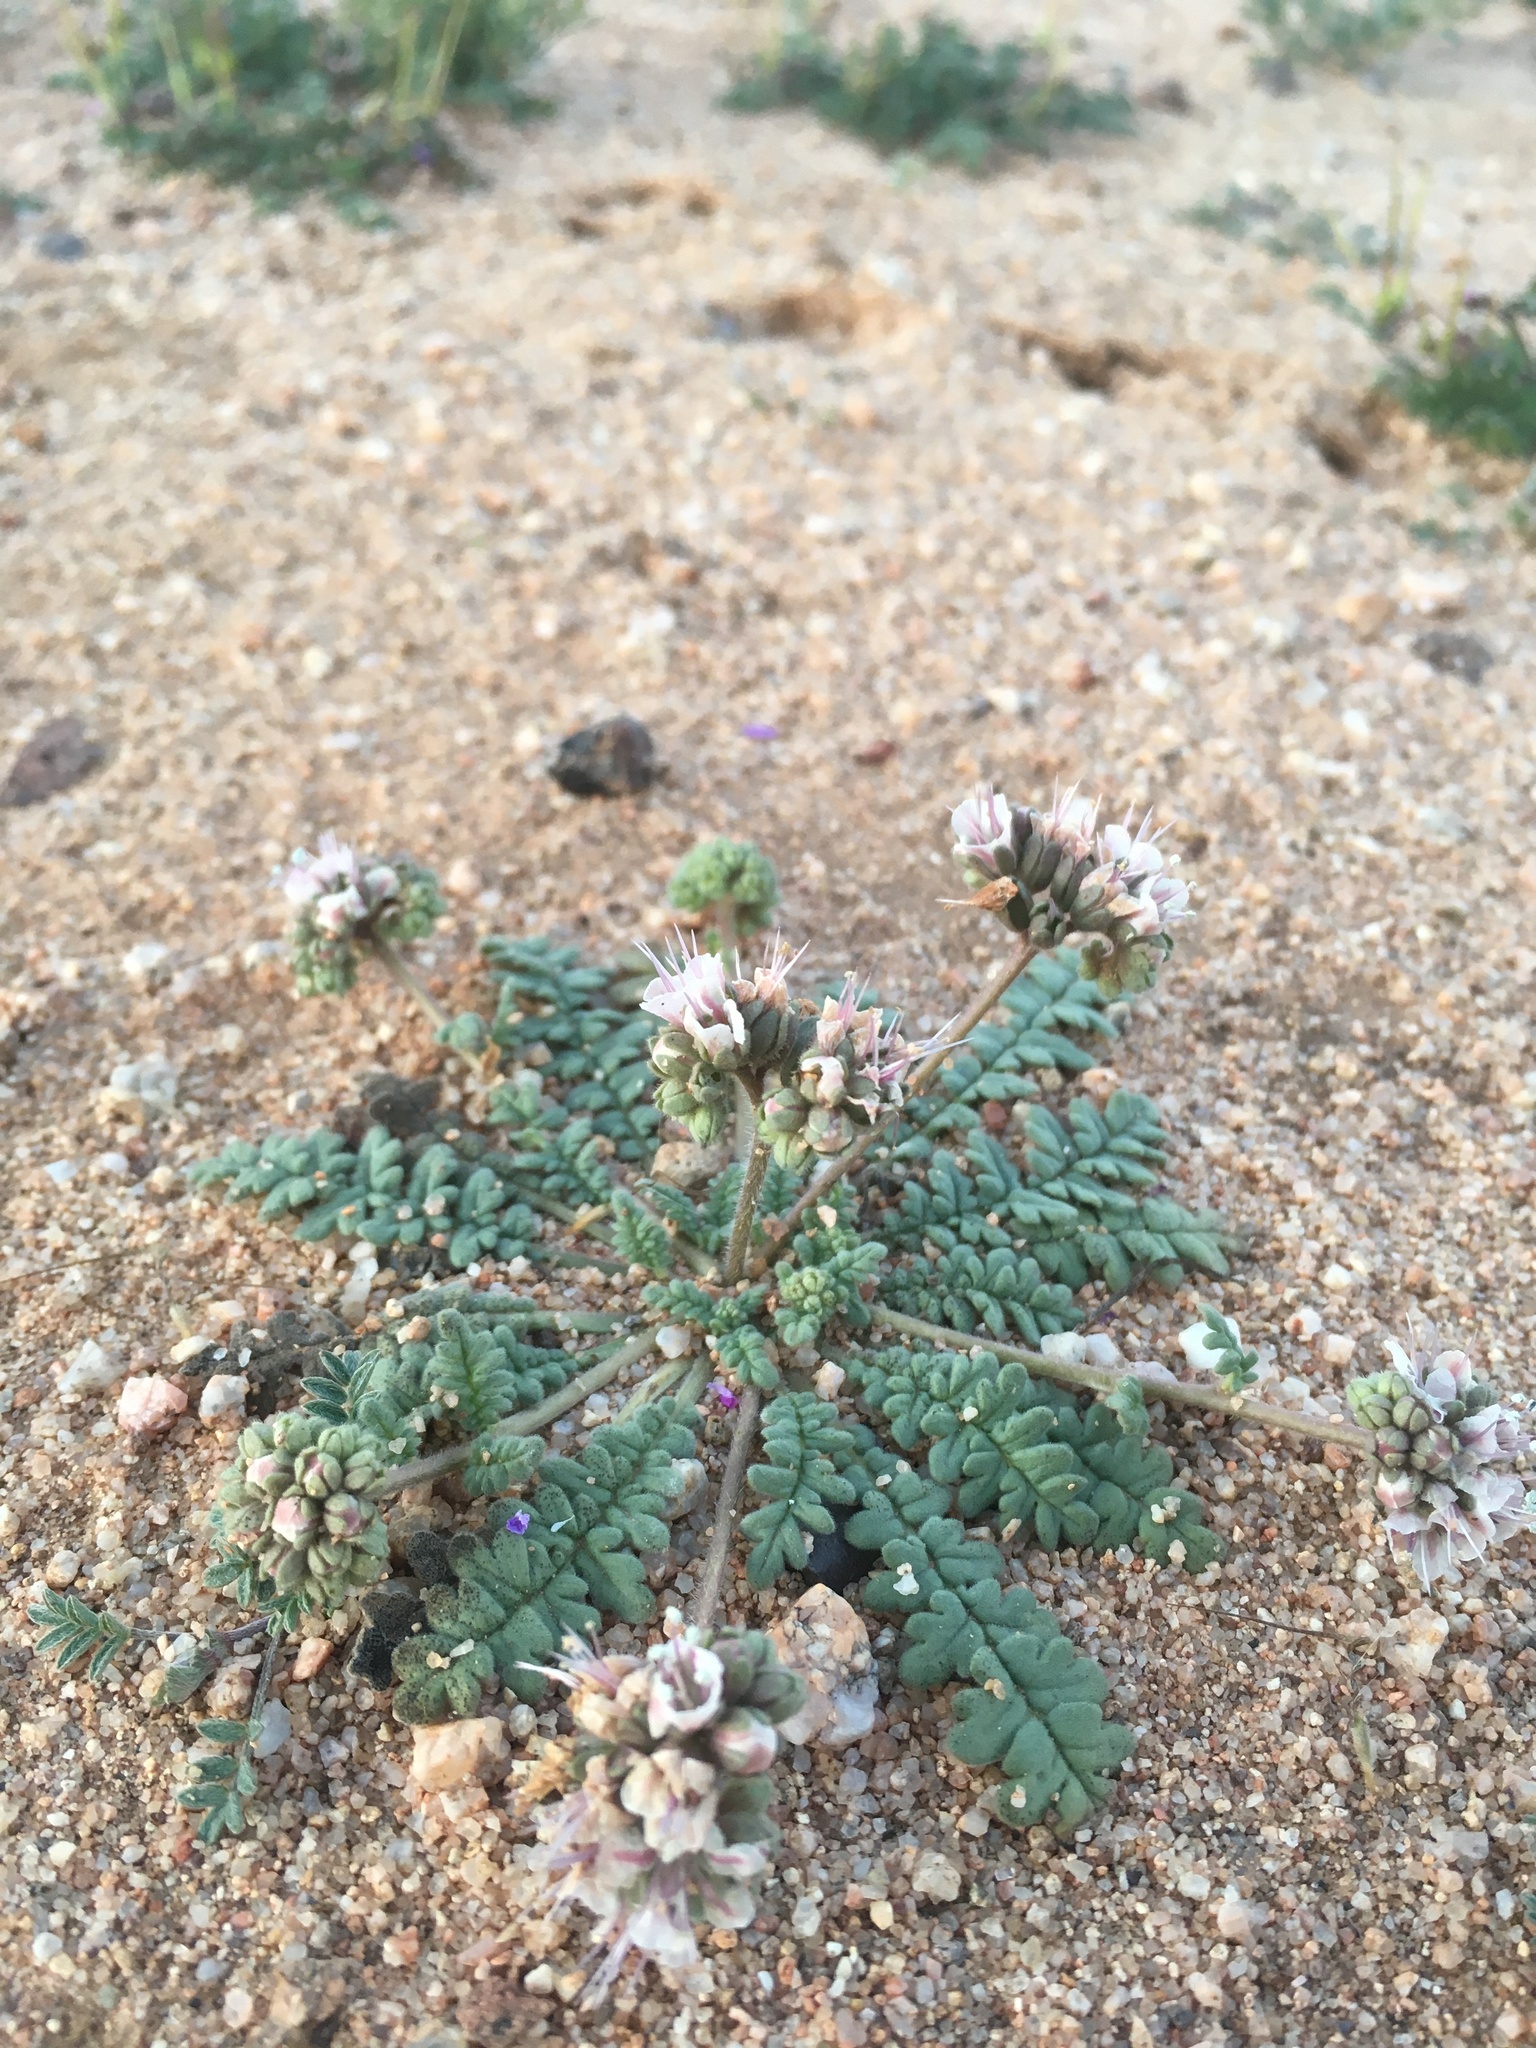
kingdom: Plantae
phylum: Tracheophyta
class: Magnoliopsida
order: Boraginales
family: Hydrophyllaceae
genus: Phacelia
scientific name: Phacelia arizonica
